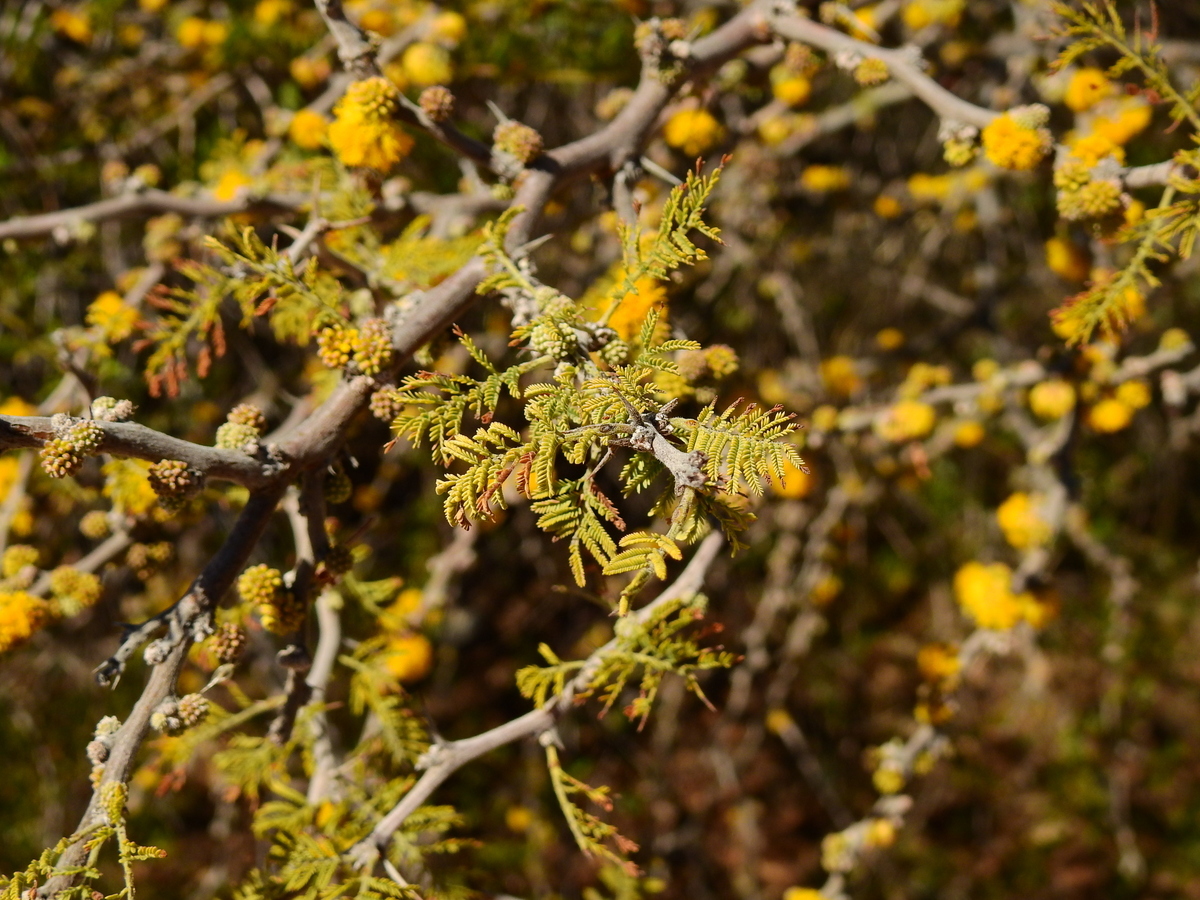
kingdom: Plantae
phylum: Tracheophyta
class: Magnoliopsida
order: Fabales
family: Fabaceae
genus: Vachellia
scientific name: Vachellia caven
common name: Roman cassie
